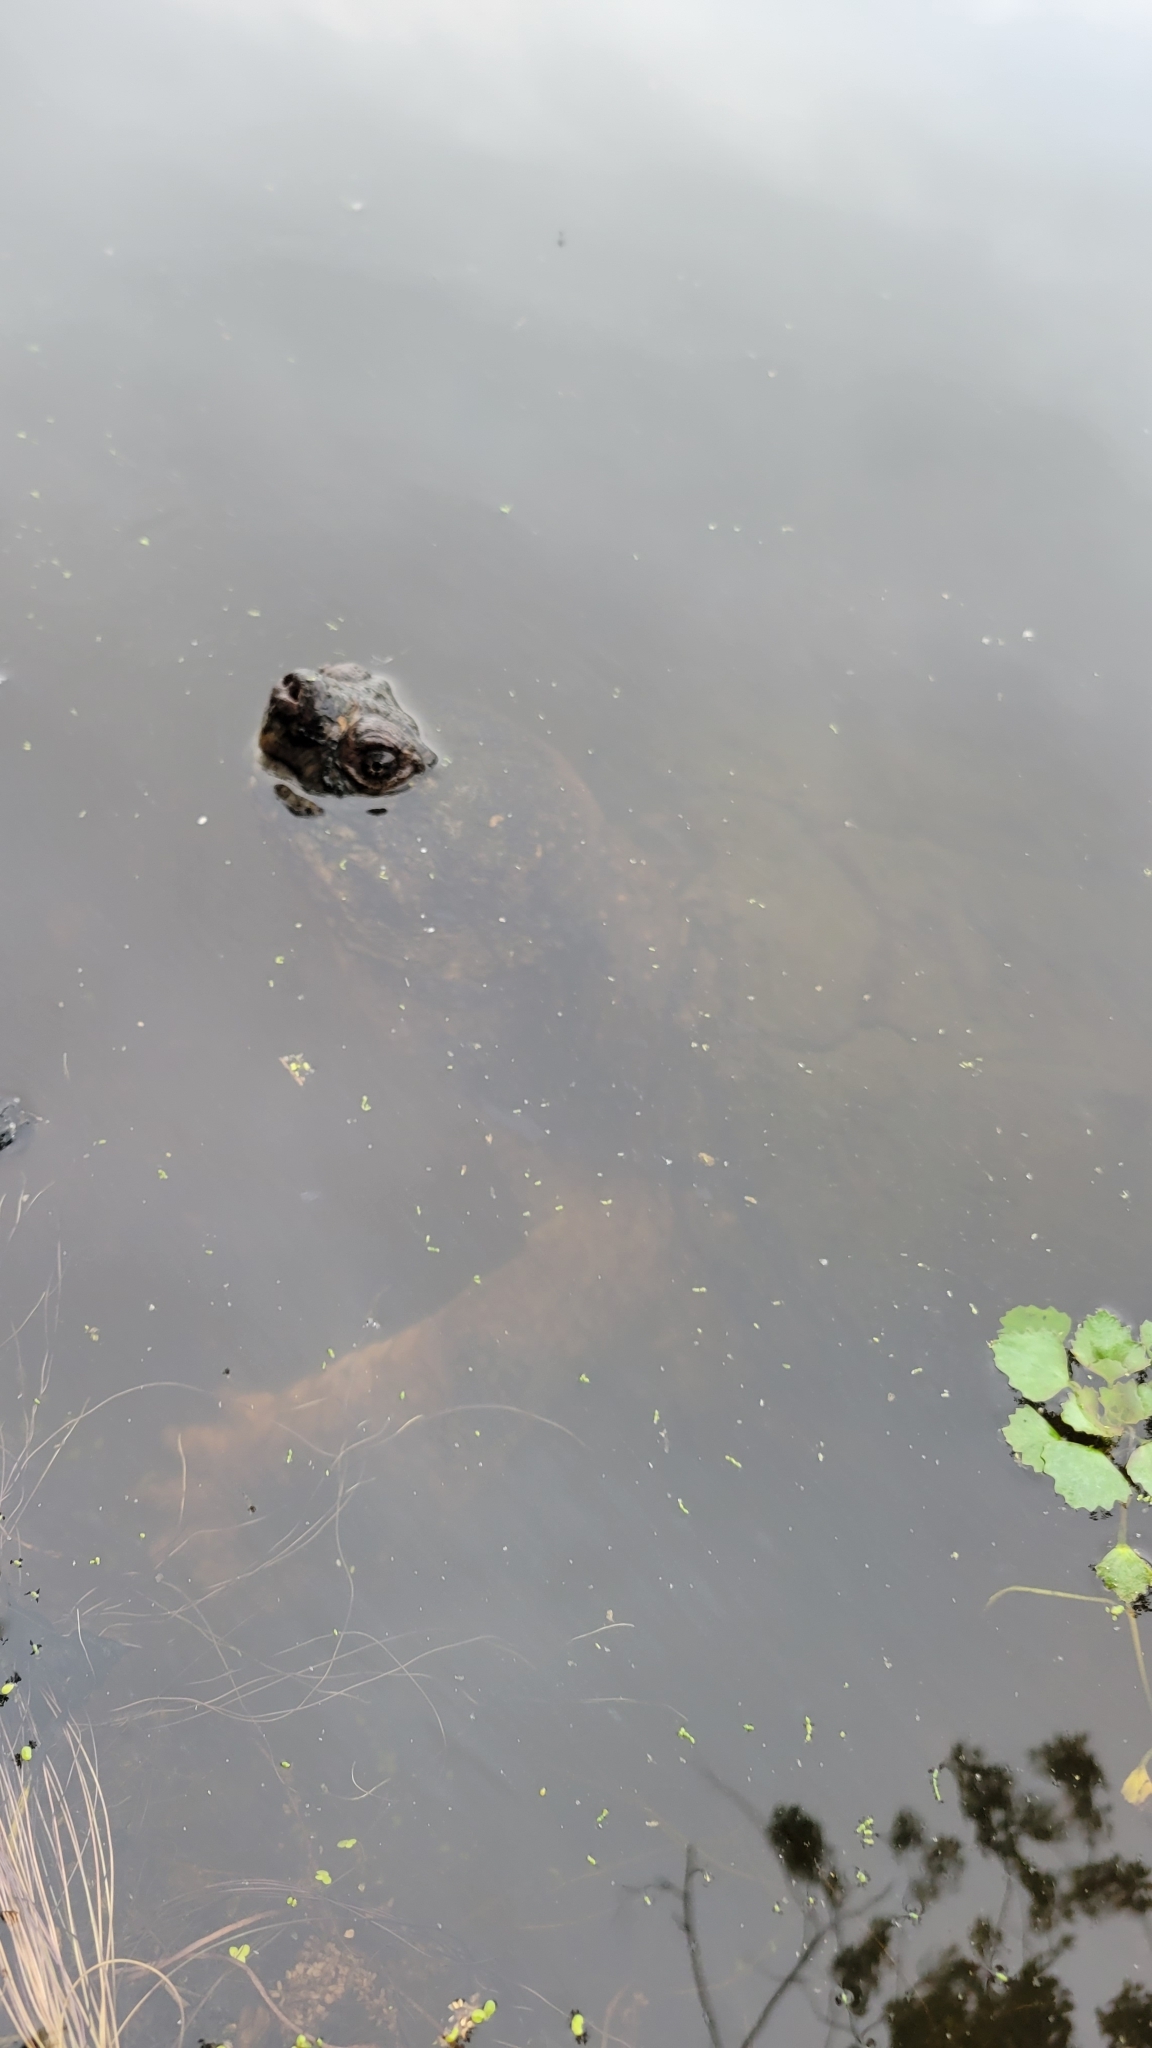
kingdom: Animalia
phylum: Chordata
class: Testudines
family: Chelydridae
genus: Chelydra
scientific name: Chelydra serpentina
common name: Common snapping turtle
